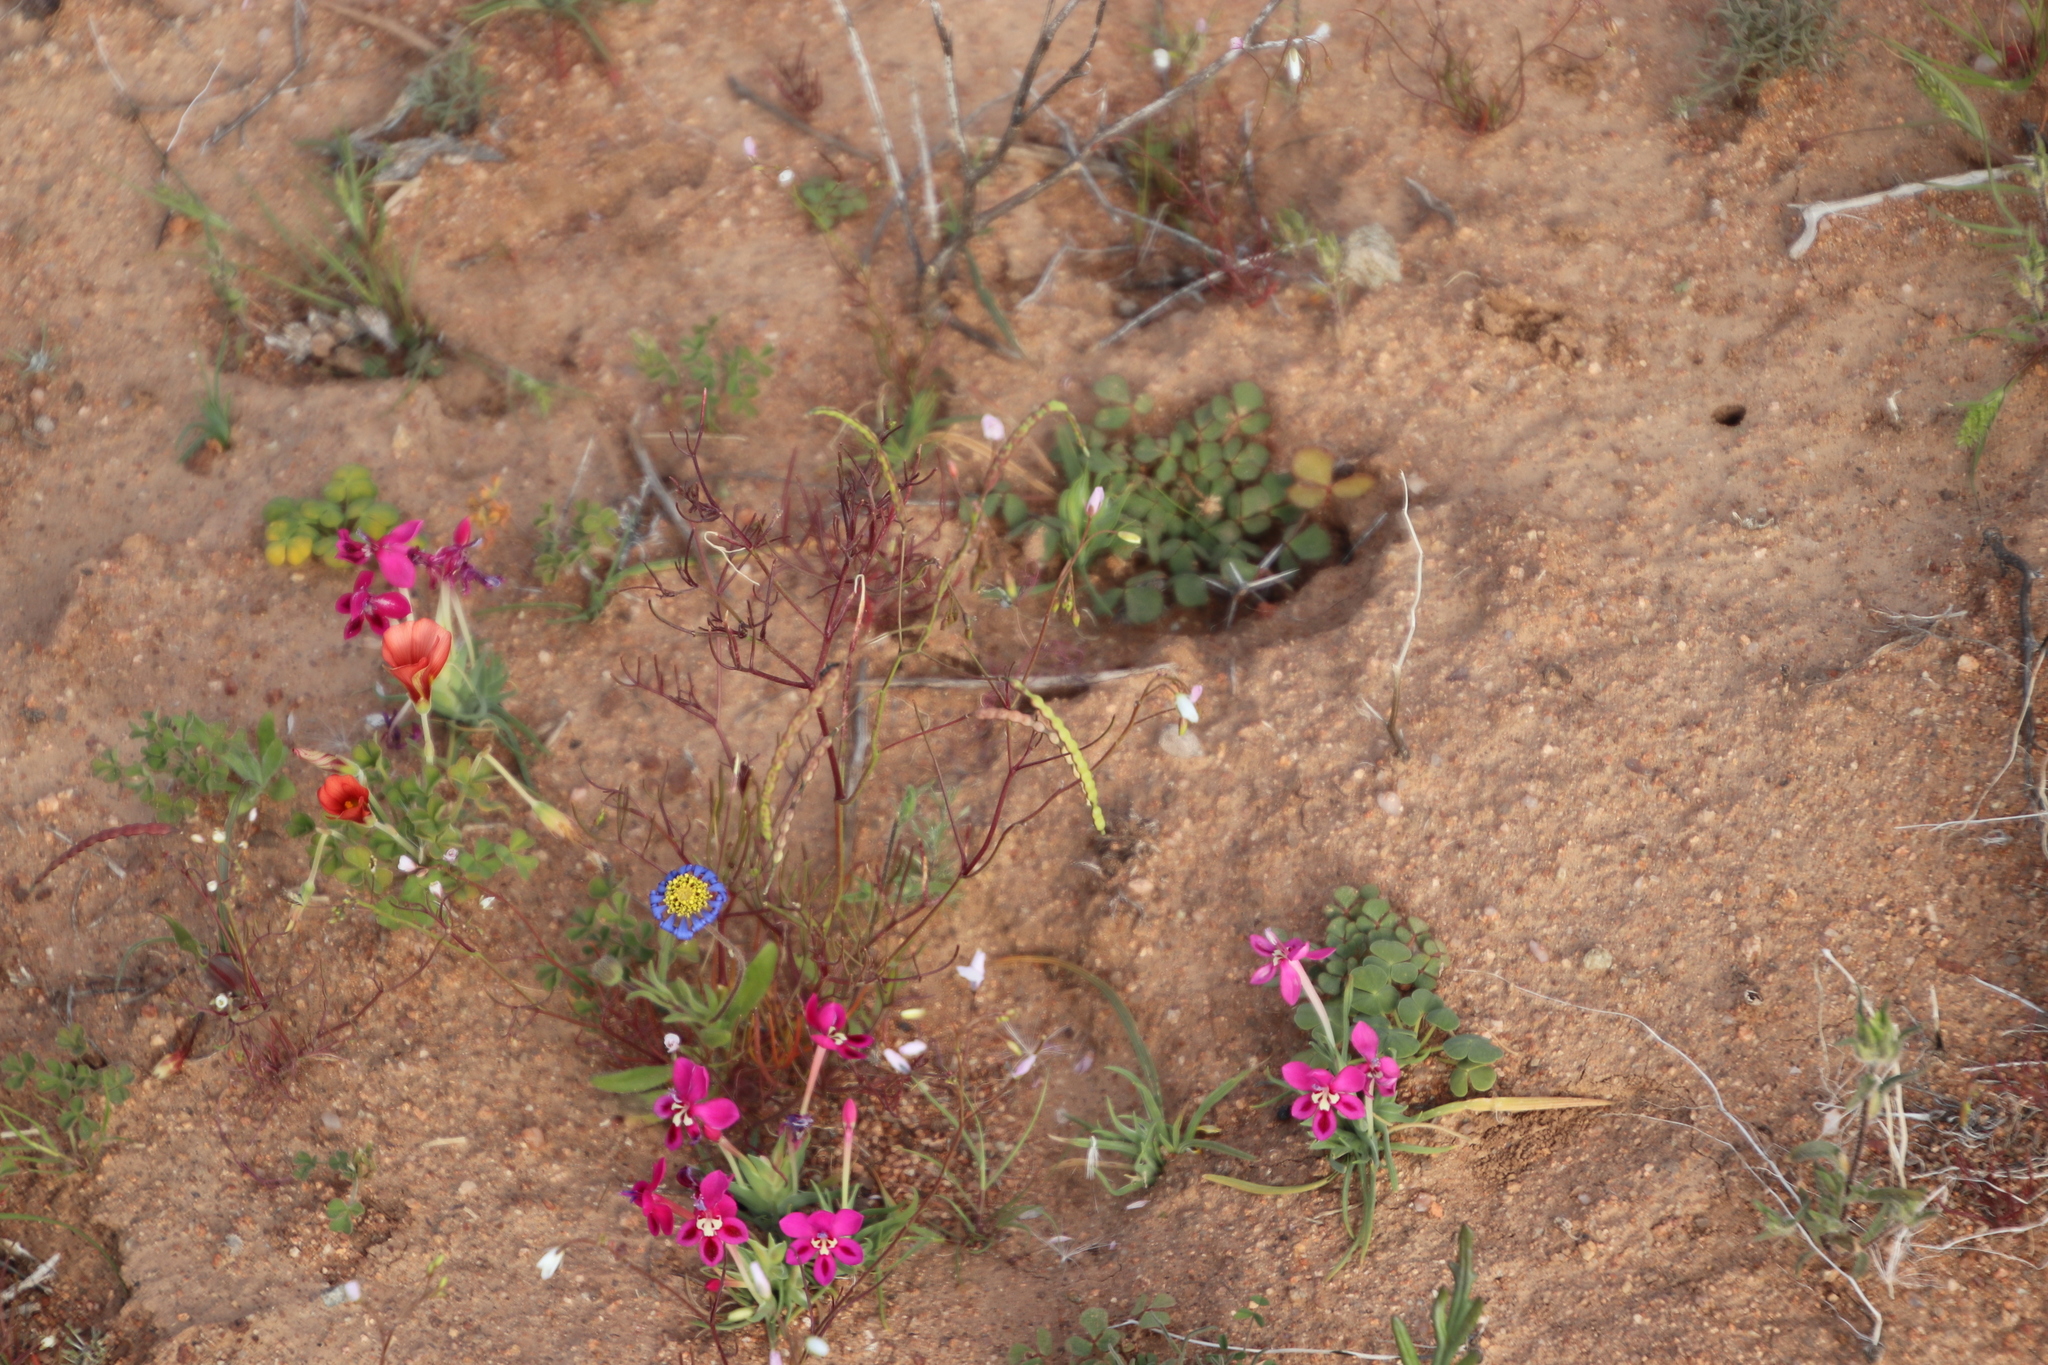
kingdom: Plantae
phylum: Tracheophyta
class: Magnoliopsida
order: Brassicales
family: Brassicaceae
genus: Heliophila
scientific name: Heliophila variabilis
